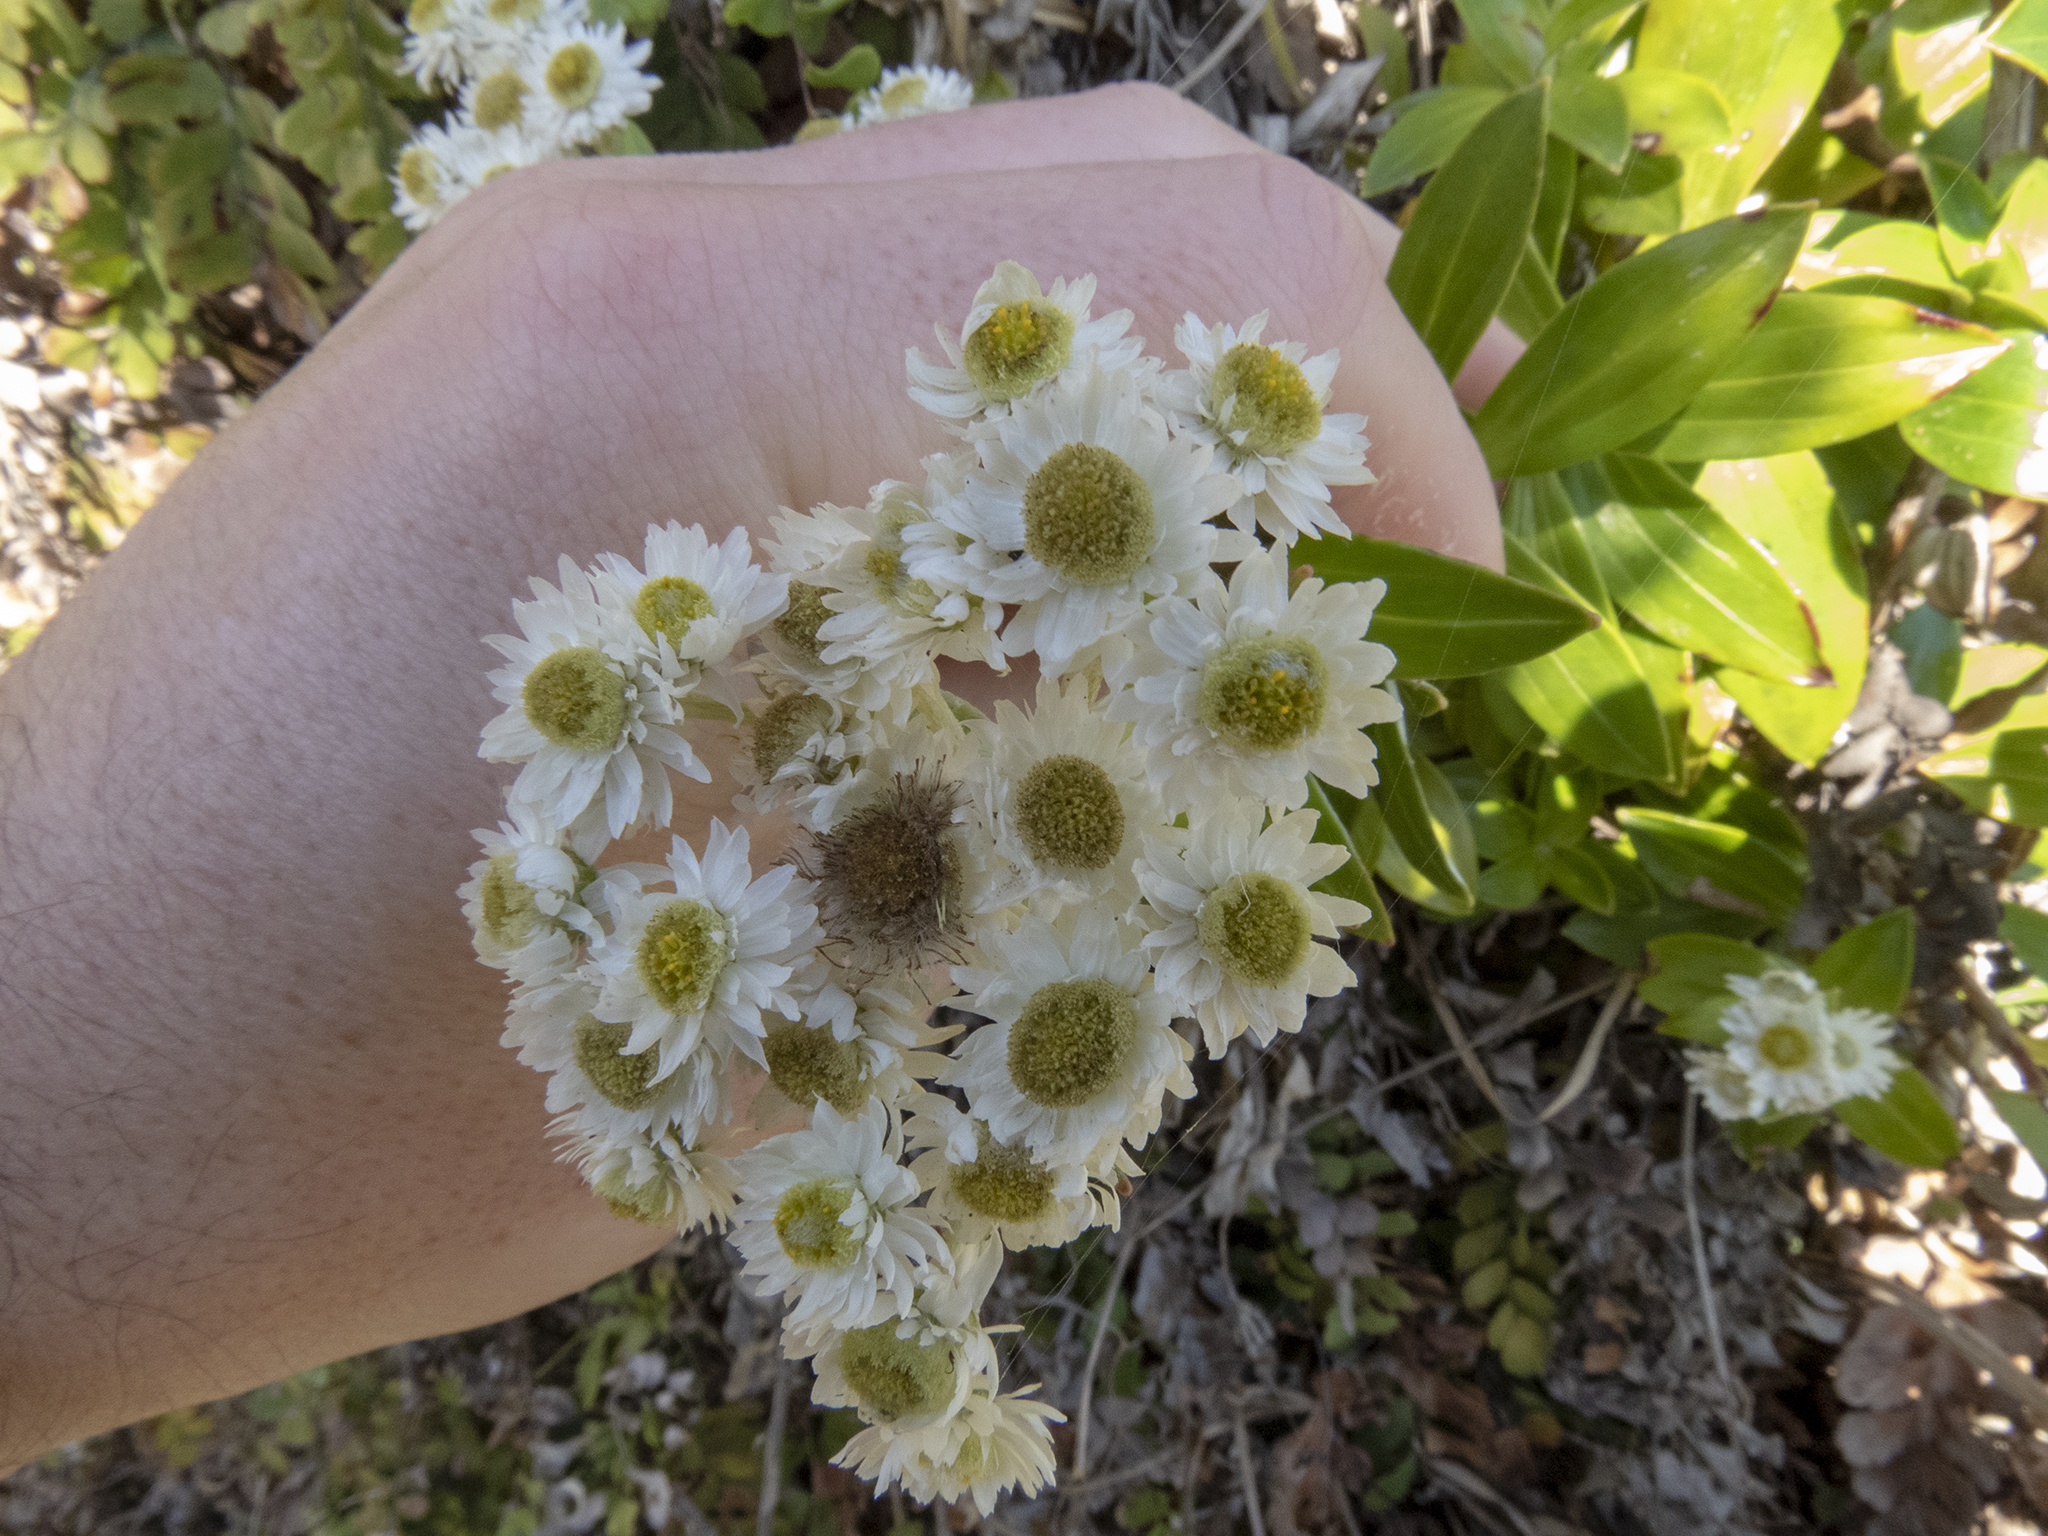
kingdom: Plantae
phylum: Tracheophyta
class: Magnoliopsida
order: Asterales
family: Asteraceae
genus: Anaphalioides
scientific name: Anaphalioides trinervis
